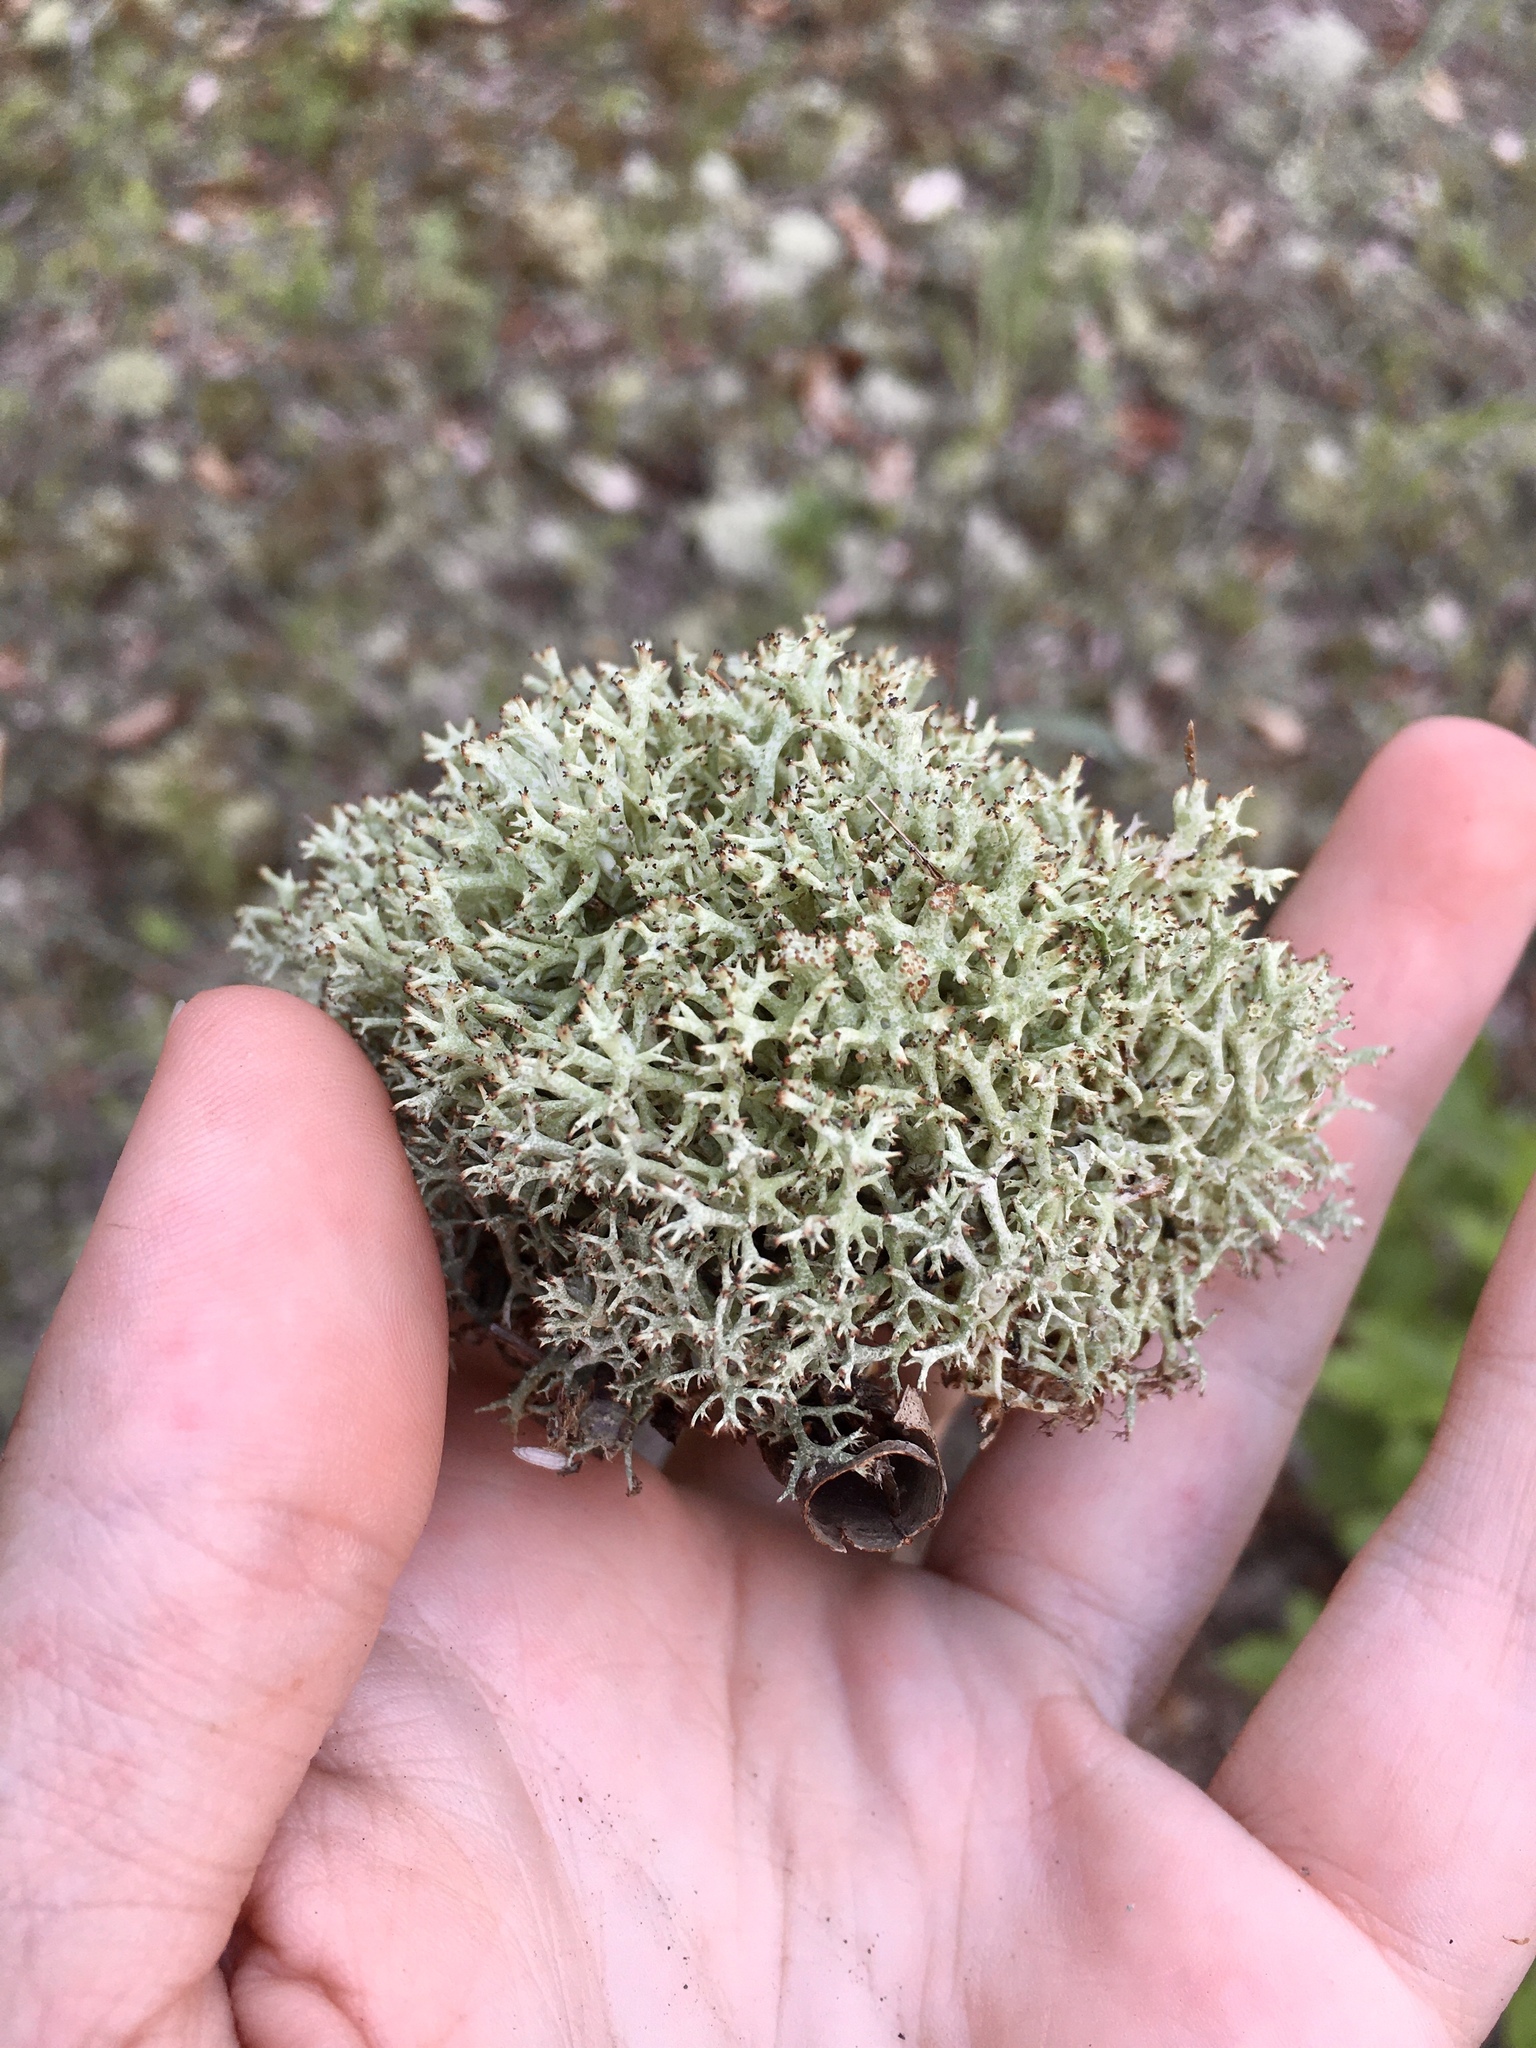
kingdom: Fungi
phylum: Ascomycota
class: Lecanoromycetes
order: Lecanorales
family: Cladoniaceae
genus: Cladonia
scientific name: Cladonia uncialis
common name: Thorn lichen
